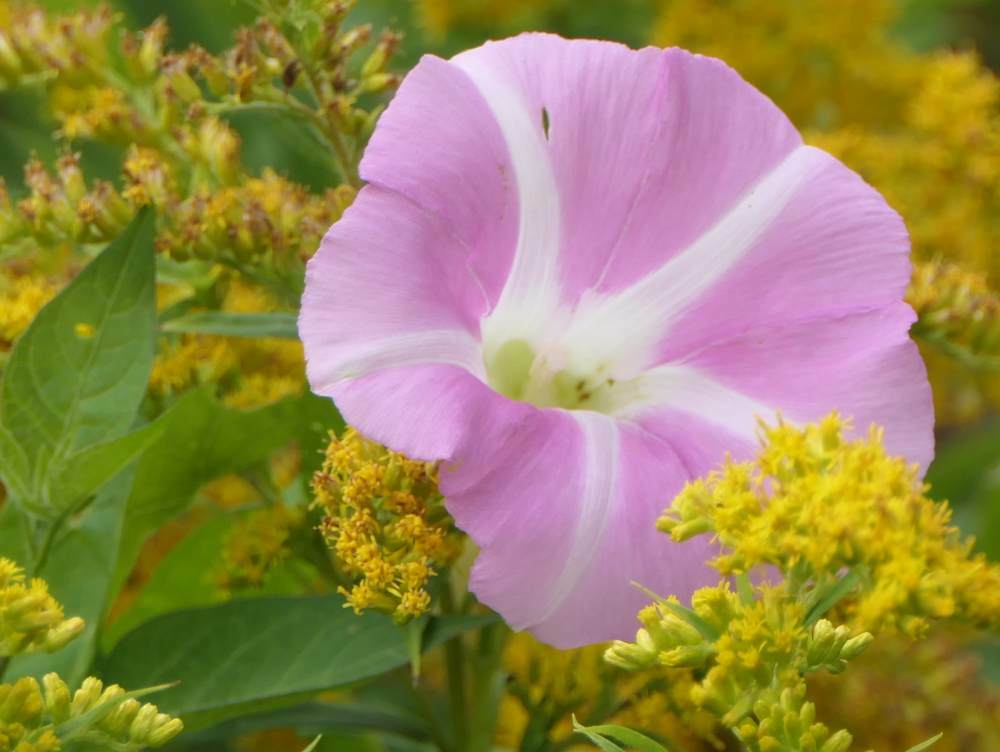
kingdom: Plantae
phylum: Tracheophyta
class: Magnoliopsida
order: Solanales
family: Convolvulaceae
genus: Convolvulus
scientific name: Convolvulus arvensis
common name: Field bindweed
